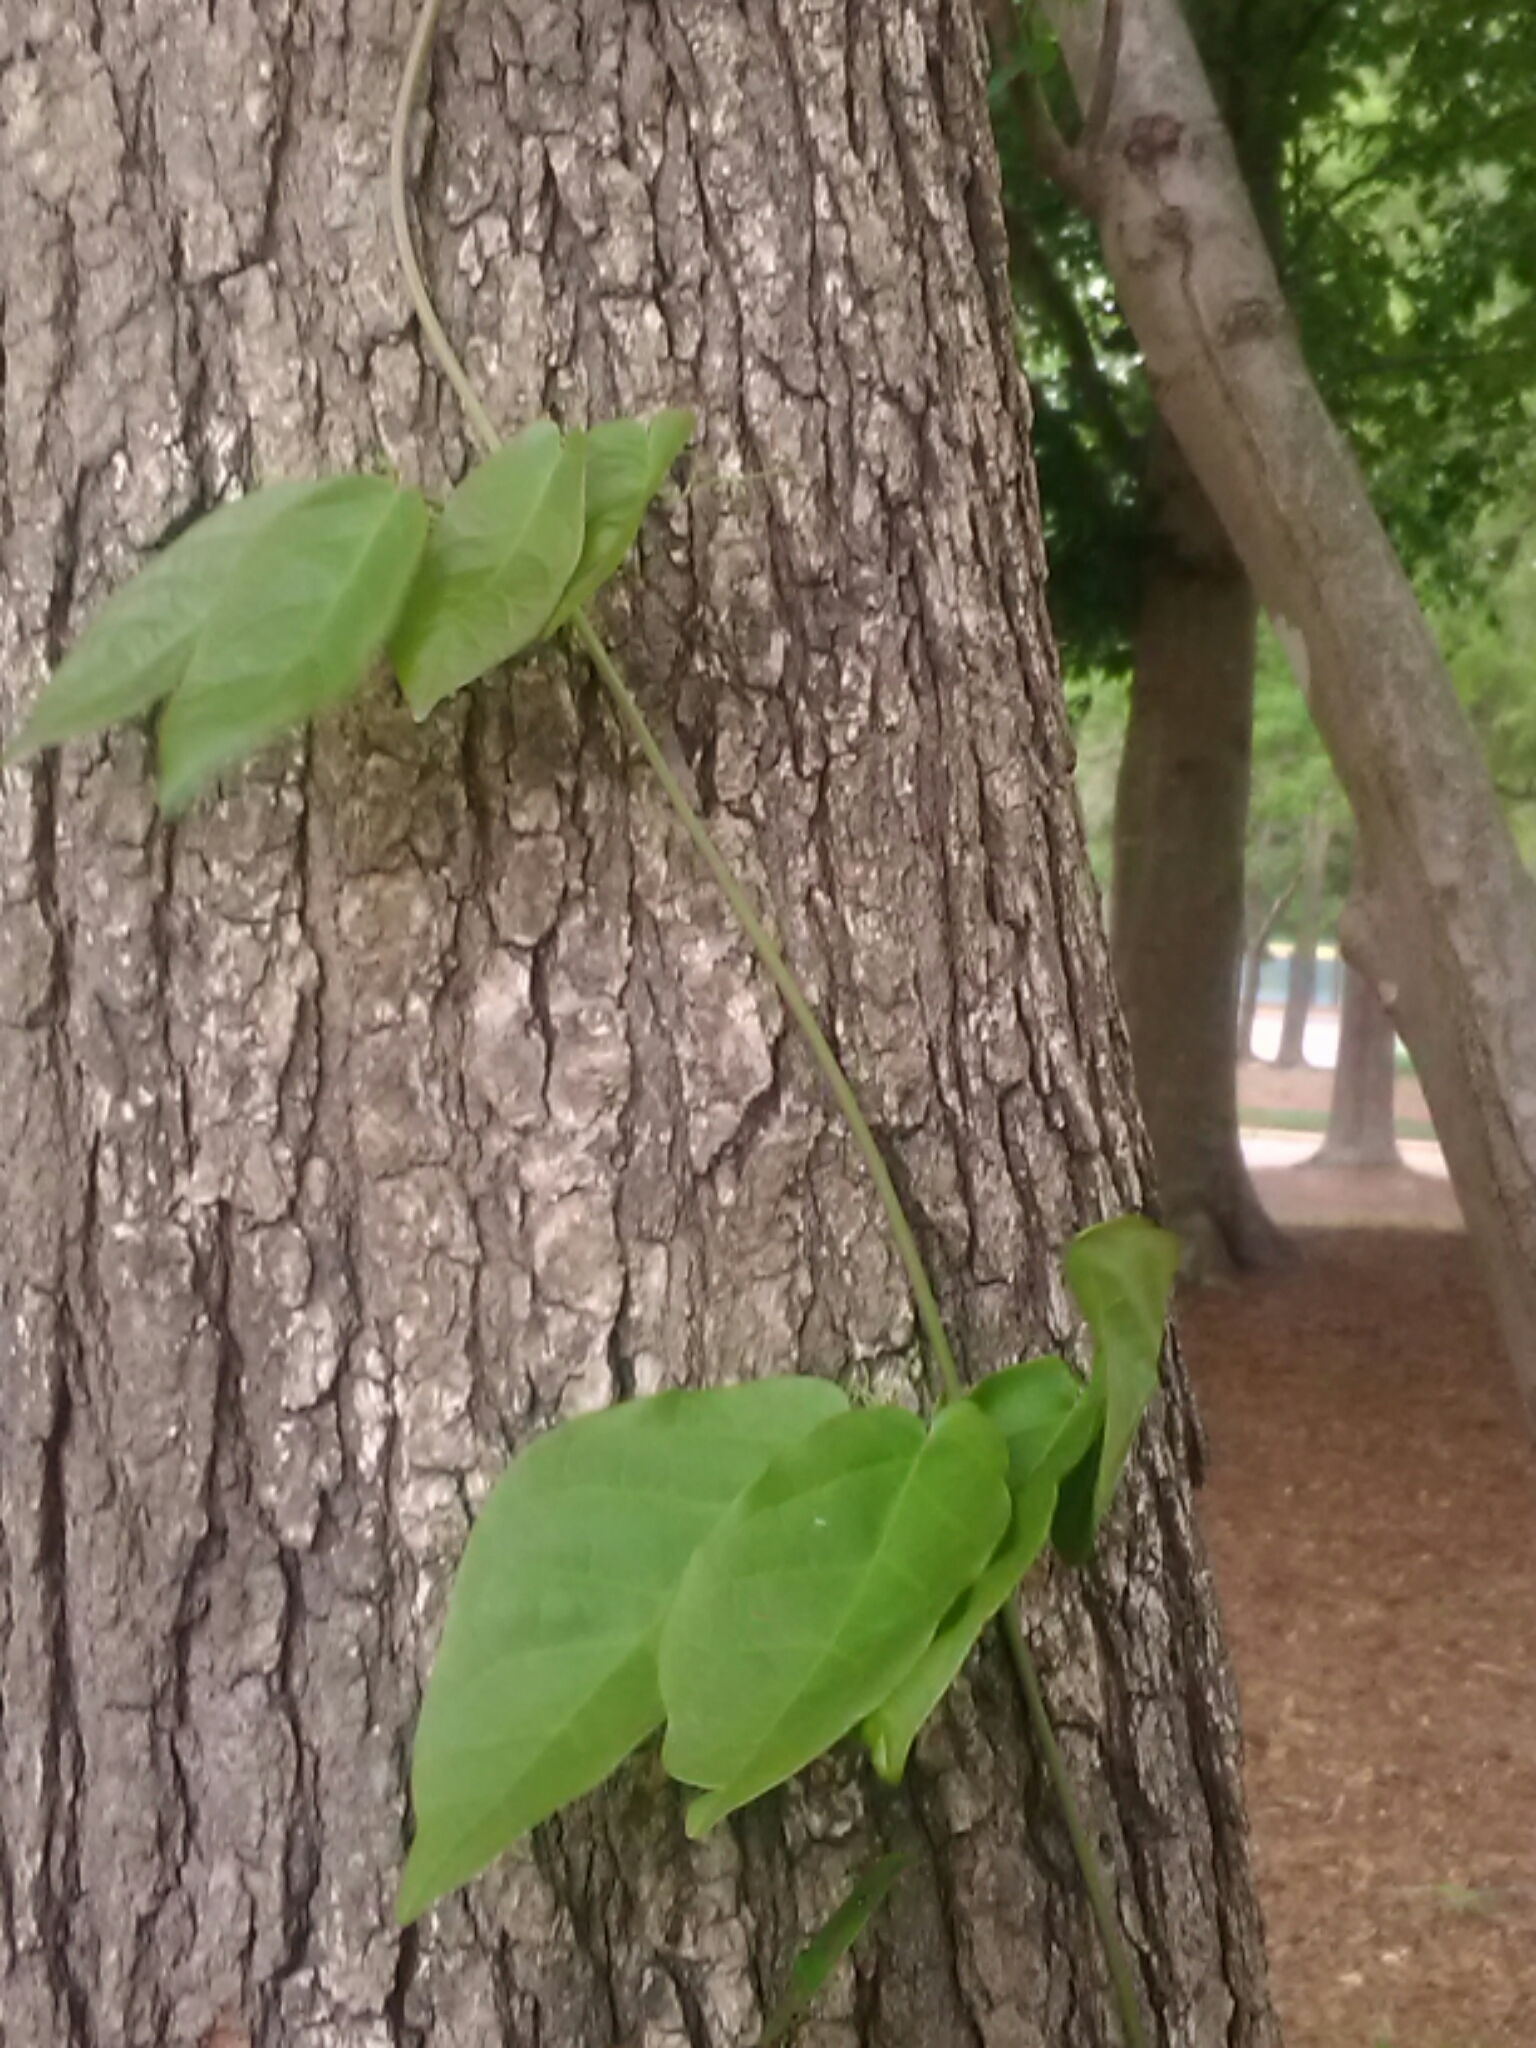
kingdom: Plantae
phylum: Tracheophyta
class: Magnoliopsida
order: Lamiales
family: Bignoniaceae
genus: Bignonia
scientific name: Bignonia capreolata
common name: Crossvine
